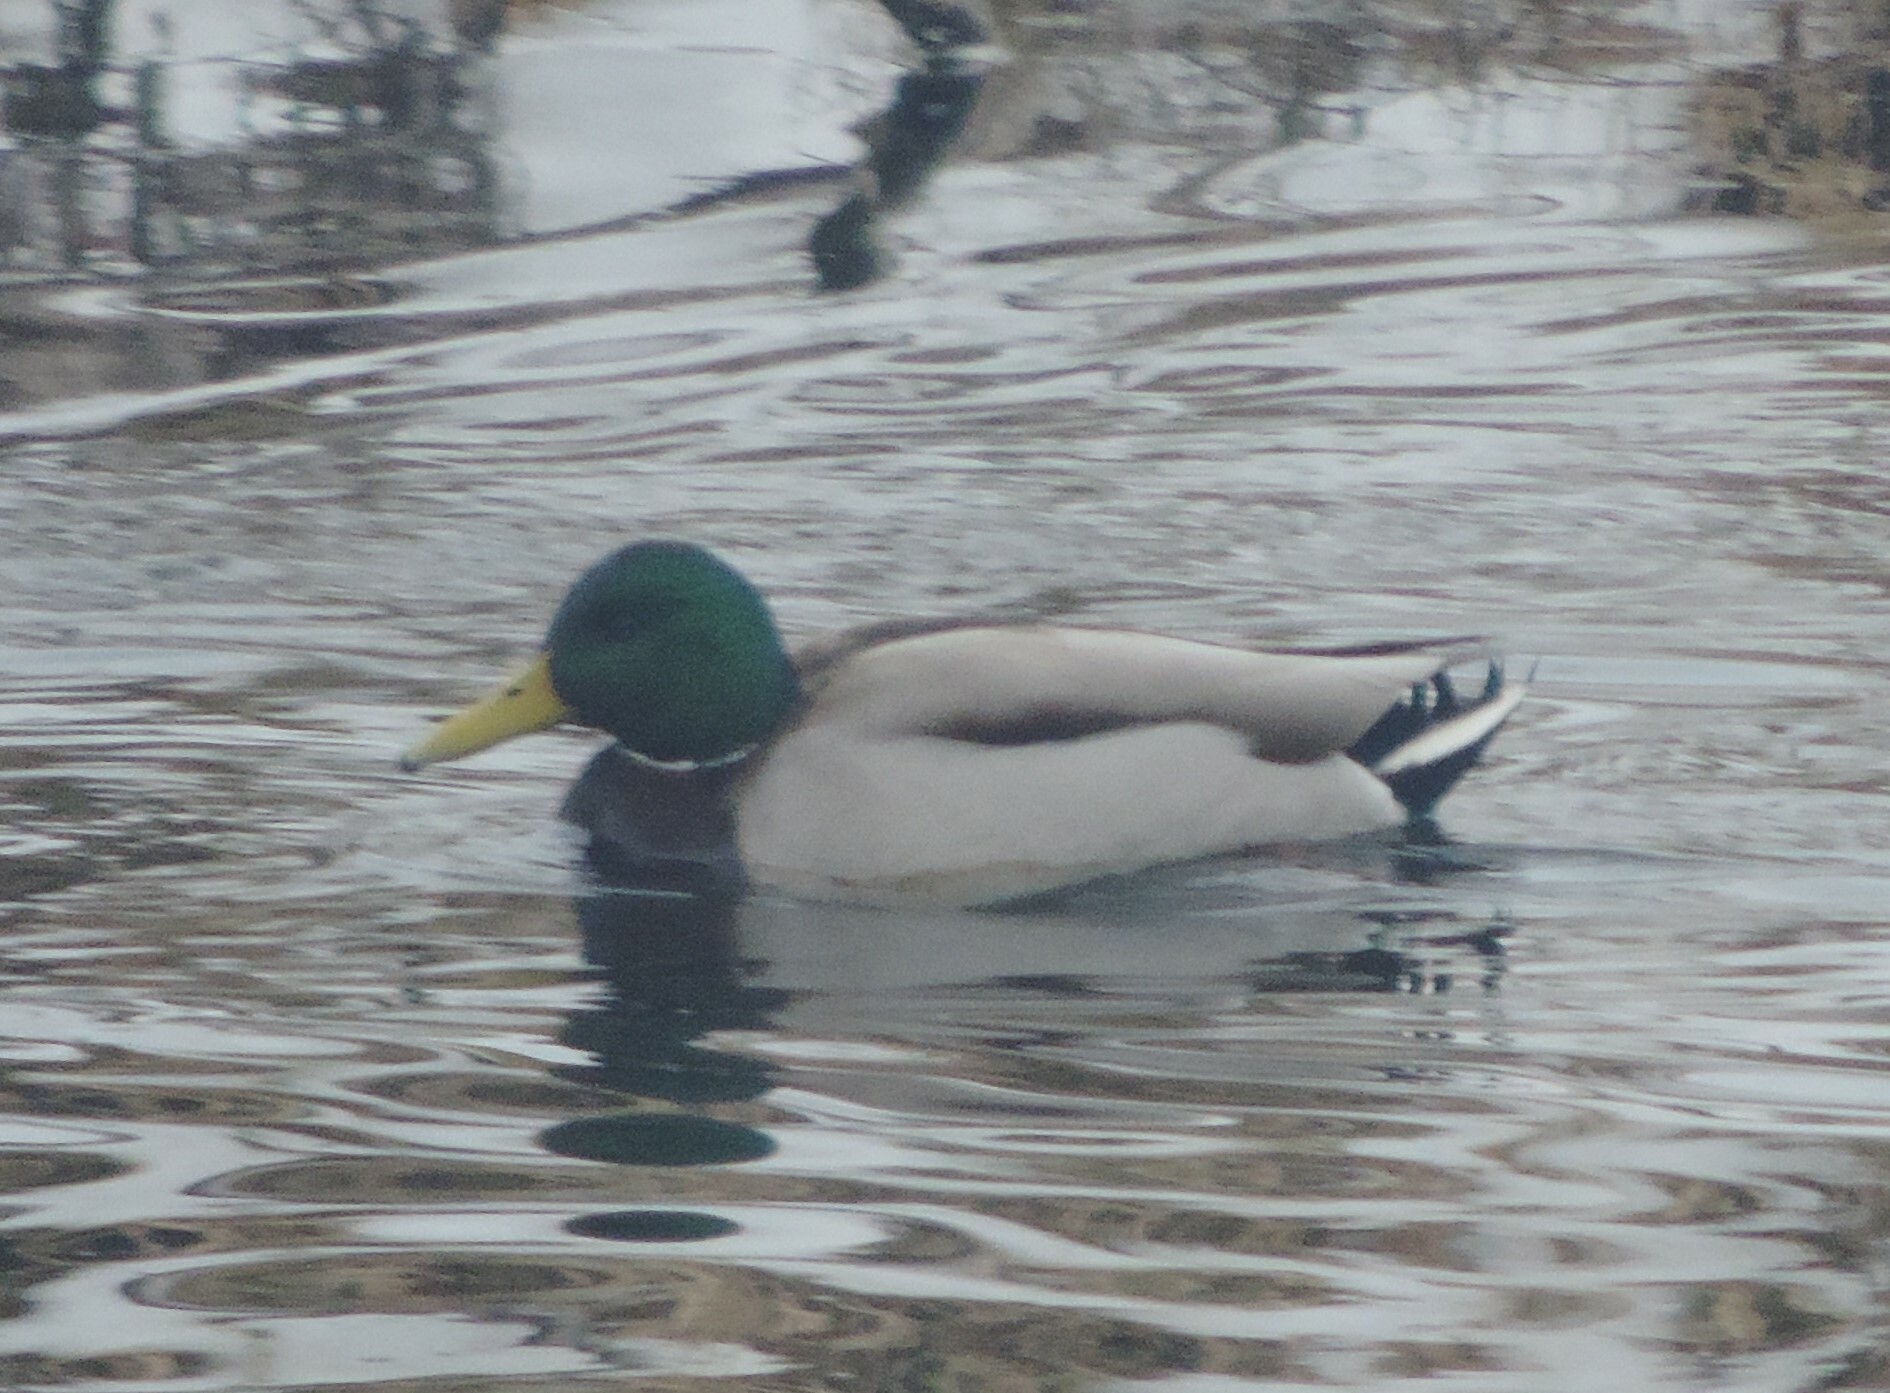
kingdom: Animalia
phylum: Chordata
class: Aves
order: Anseriformes
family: Anatidae
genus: Anas
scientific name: Anas platyrhynchos
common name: Mallard
